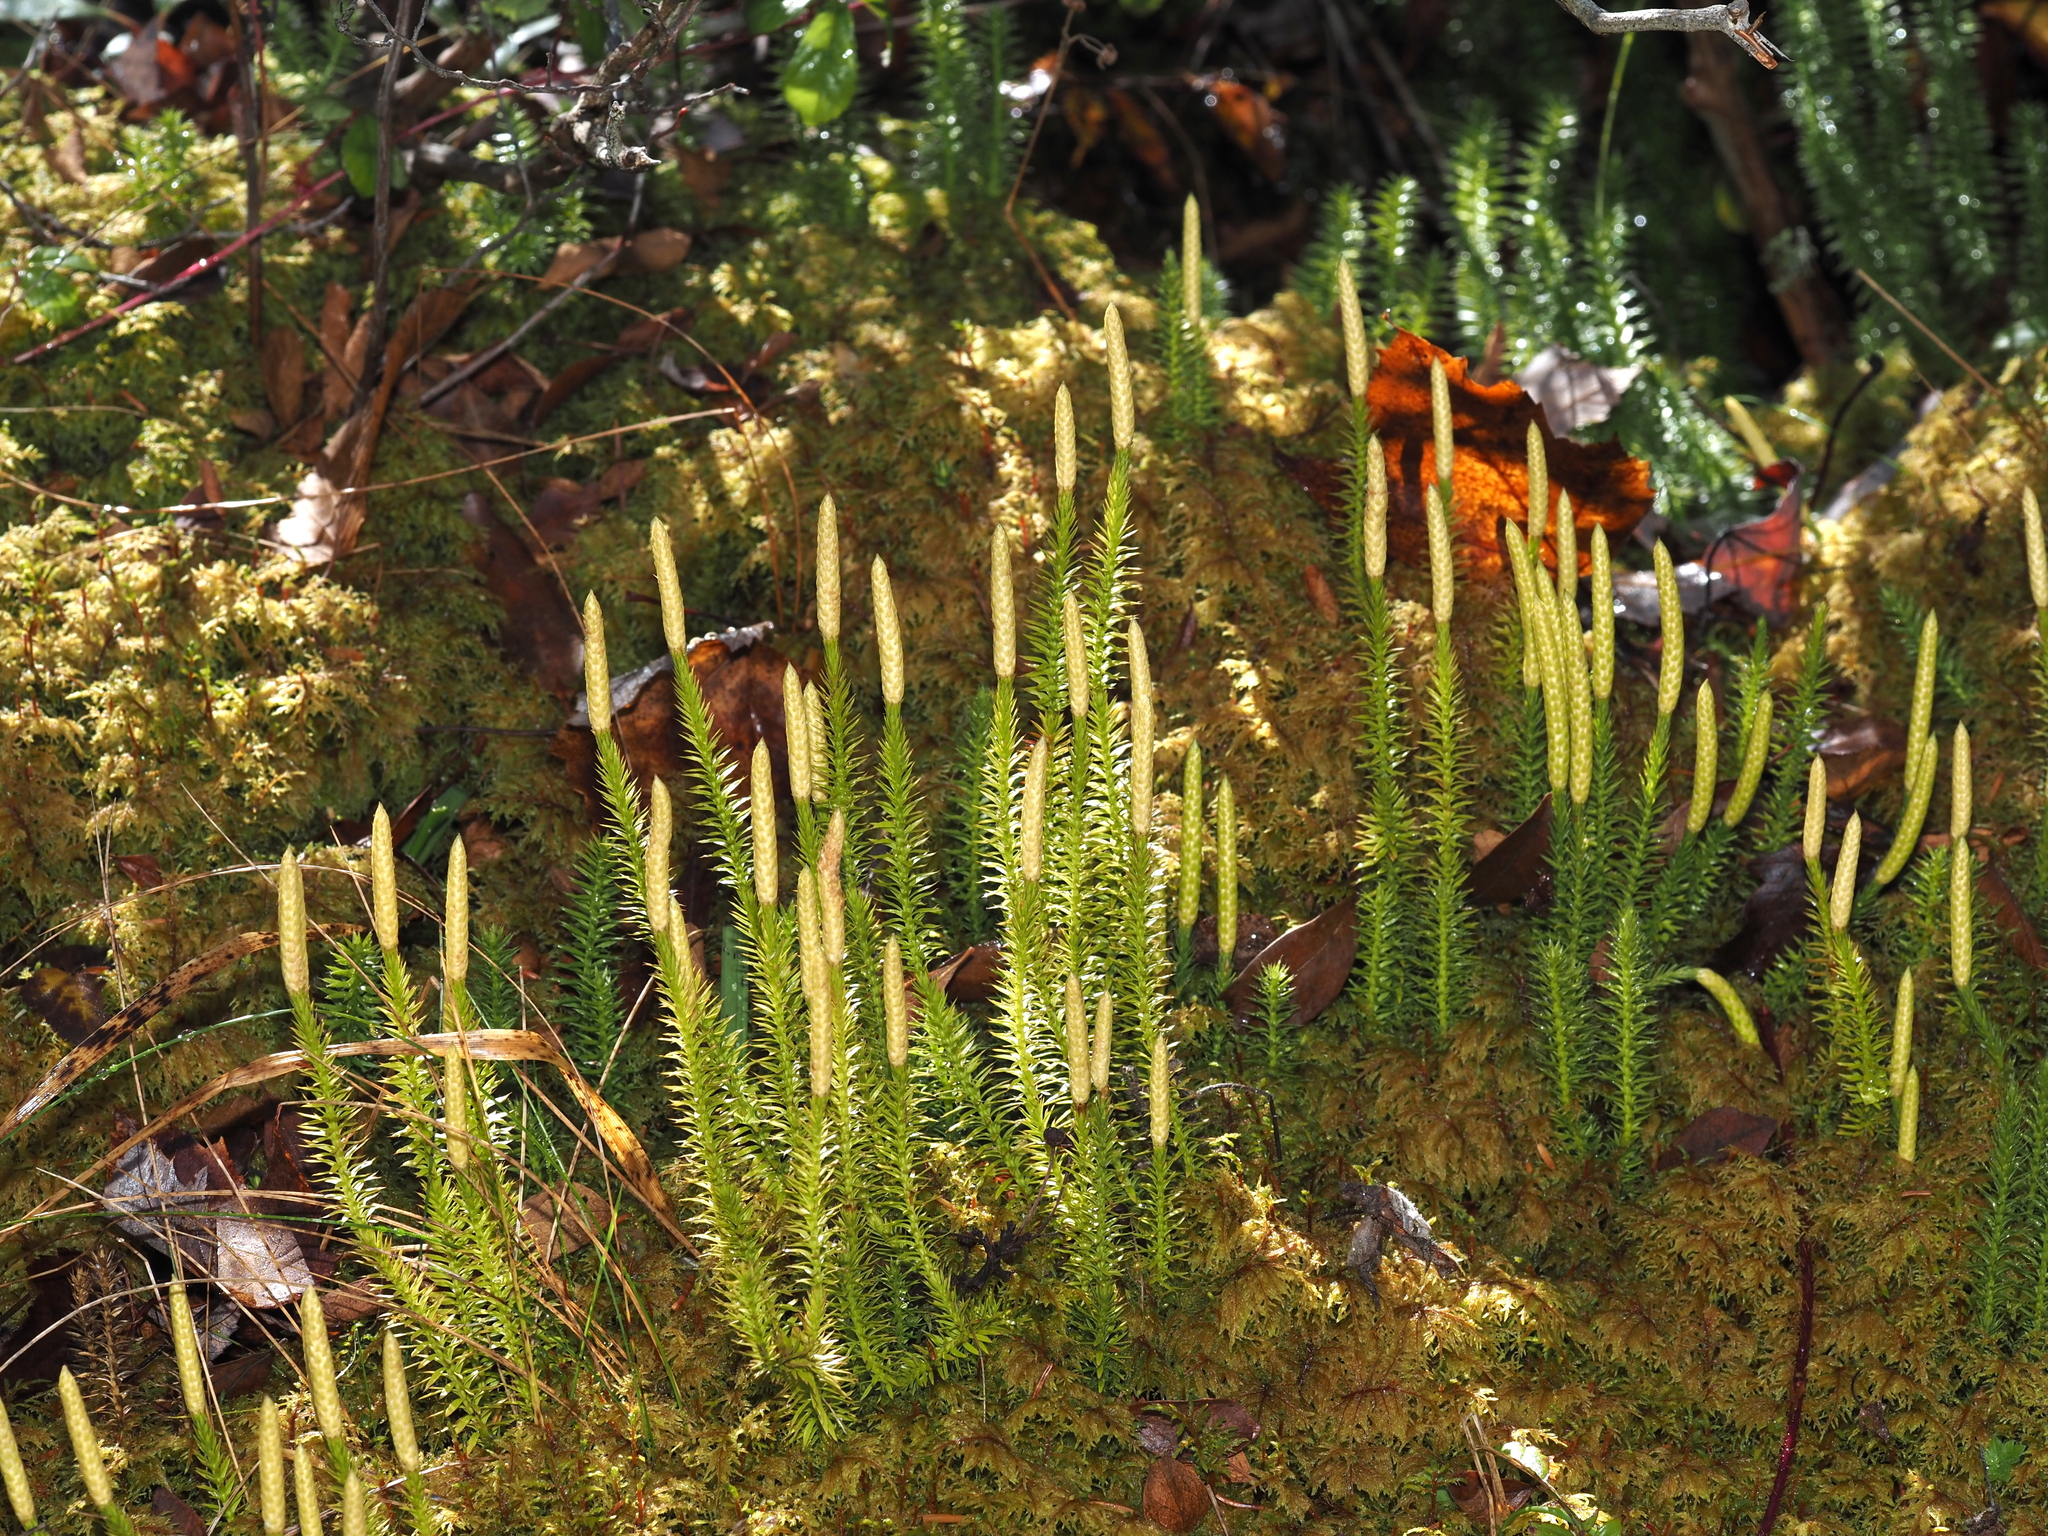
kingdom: Plantae
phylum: Tracheophyta
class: Lycopodiopsida
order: Lycopodiales
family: Lycopodiaceae
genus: Spinulum
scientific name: Spinulum annotinum
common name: Interrupted club-moss
